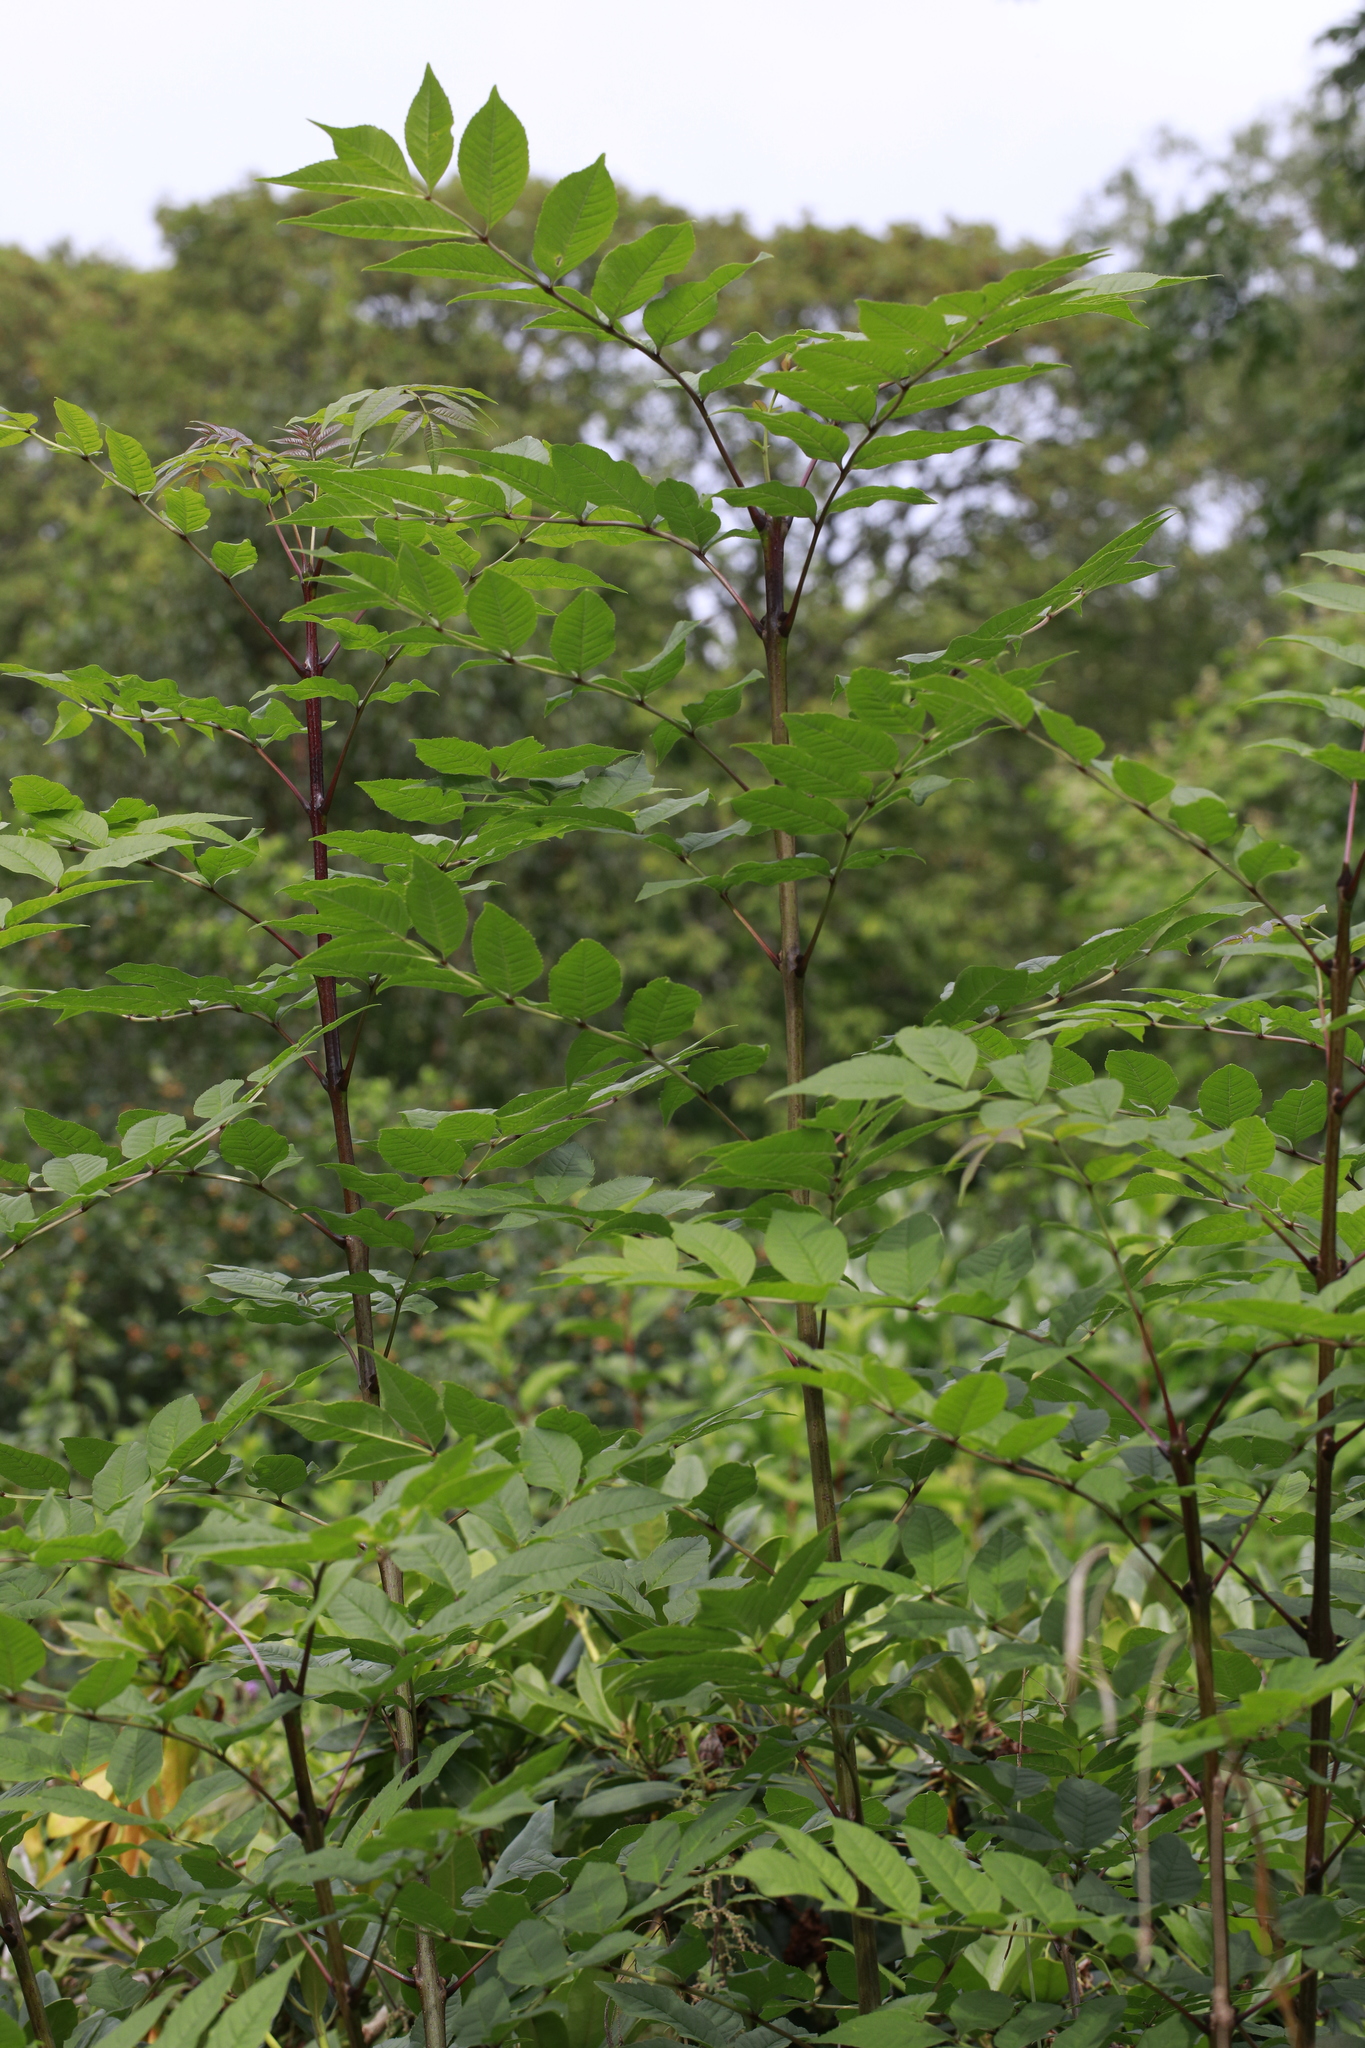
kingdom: Plantae
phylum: Tracheophyta
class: Magnoliopsida
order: Lamiales
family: Oleaceae
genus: Fraxinus
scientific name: Fraxinus excelsior
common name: European ash
